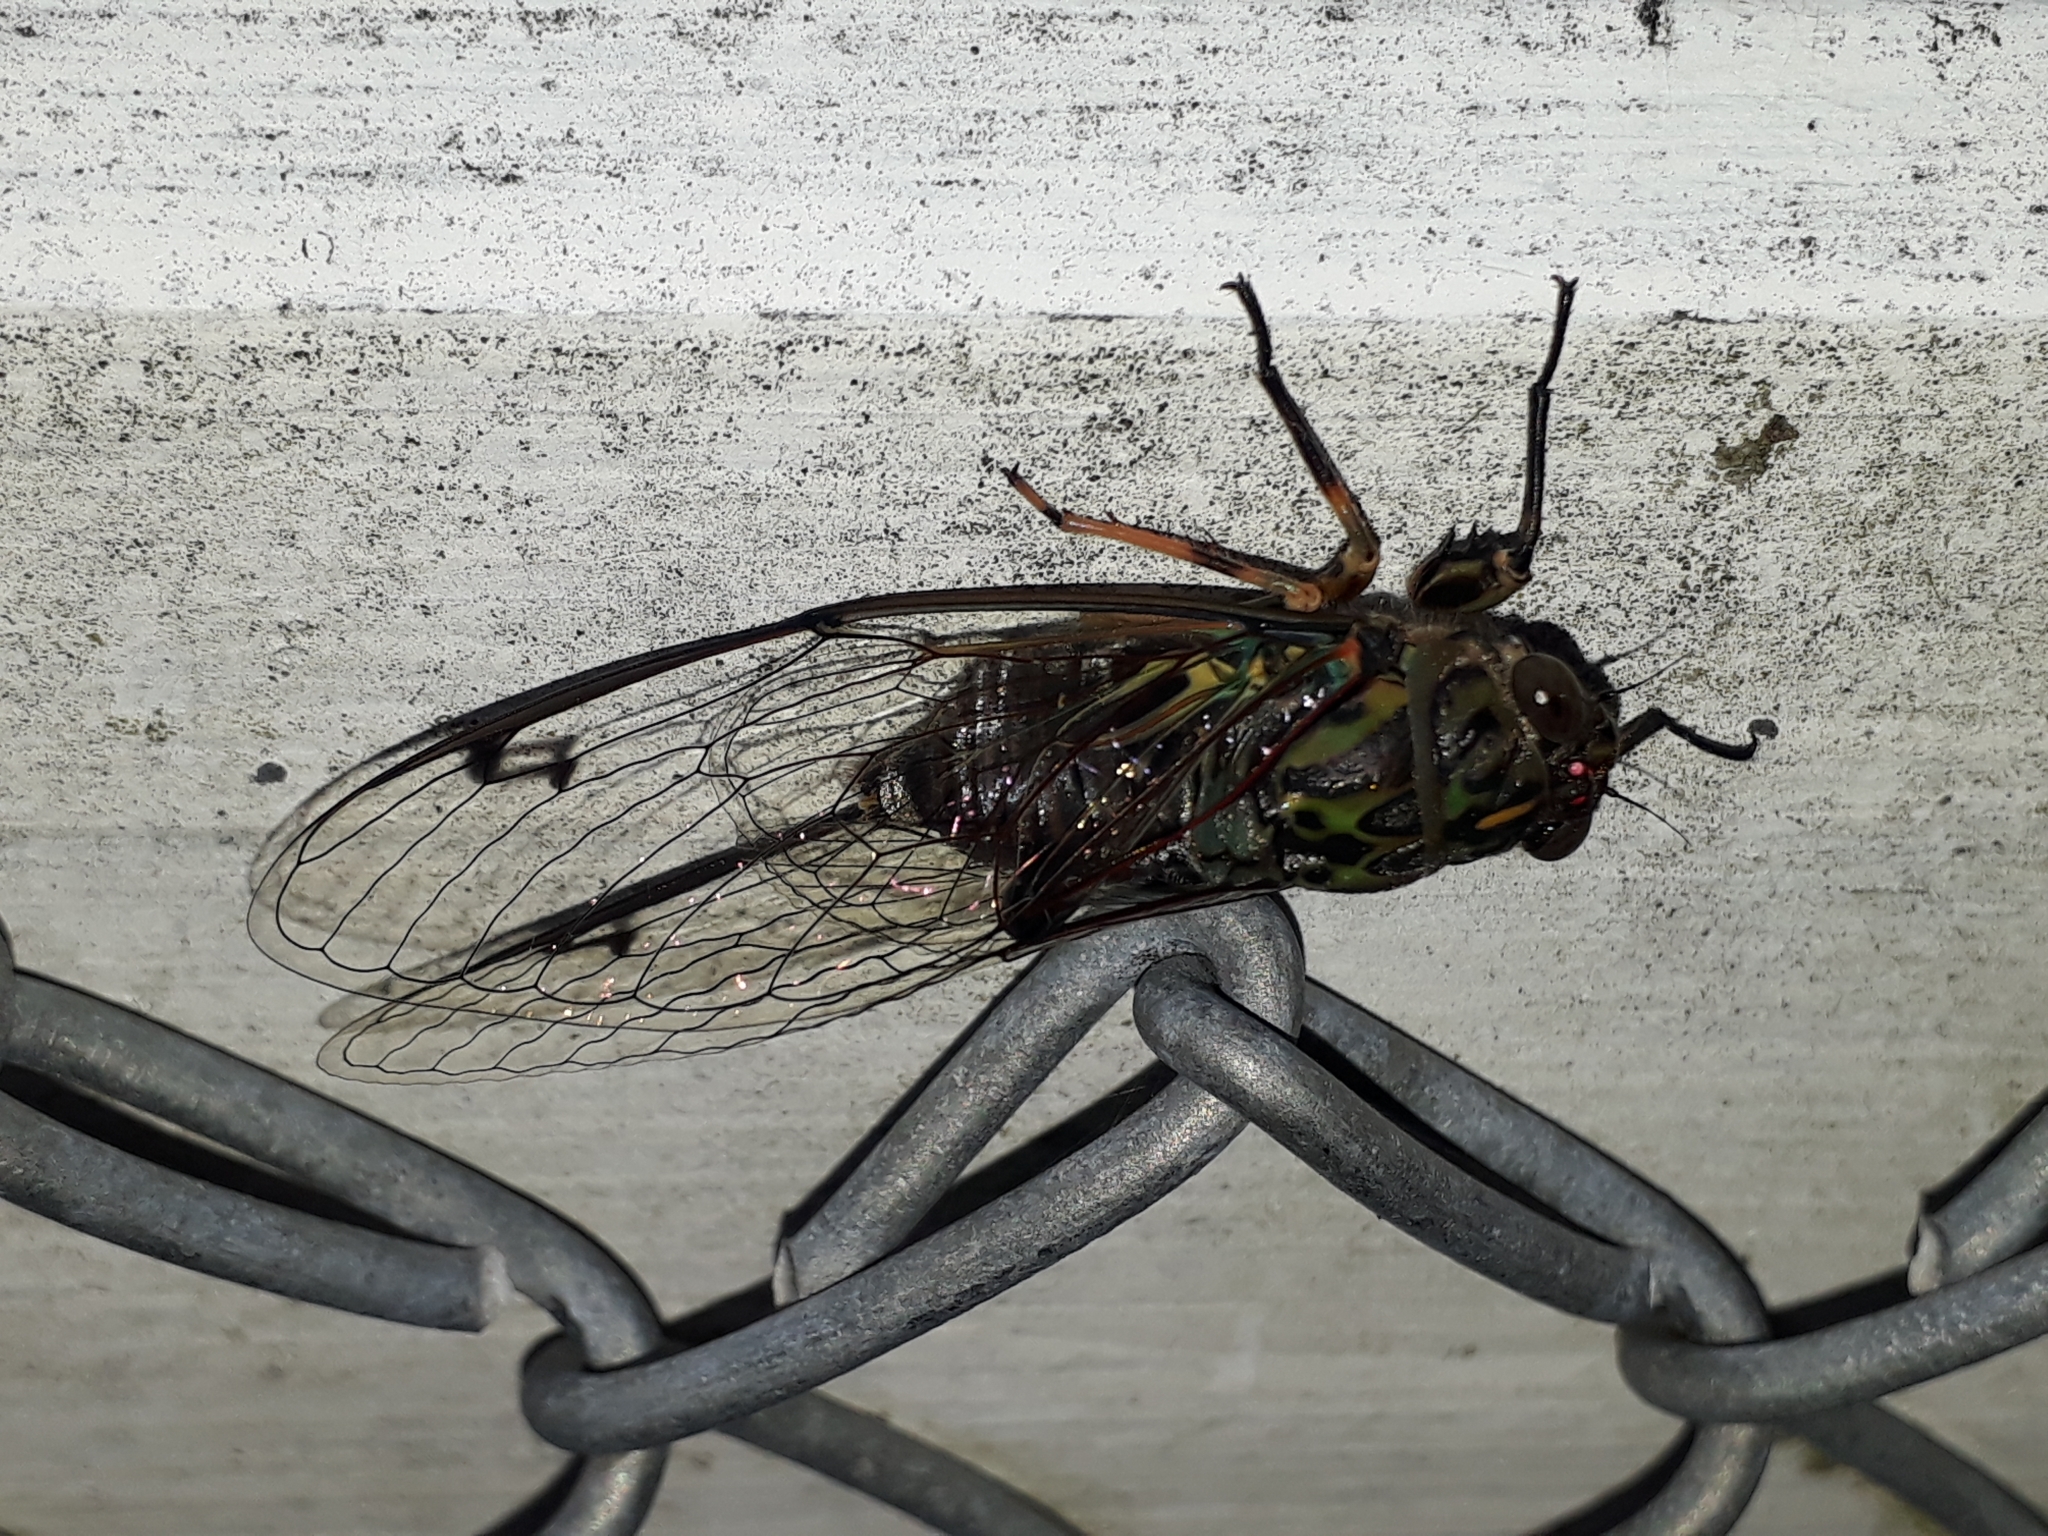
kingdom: Animalia
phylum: Arthropoda
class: Insecta
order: Hemiptera
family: Cicadidae
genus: Amphipsalta
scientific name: Amphipsalta zelandica
